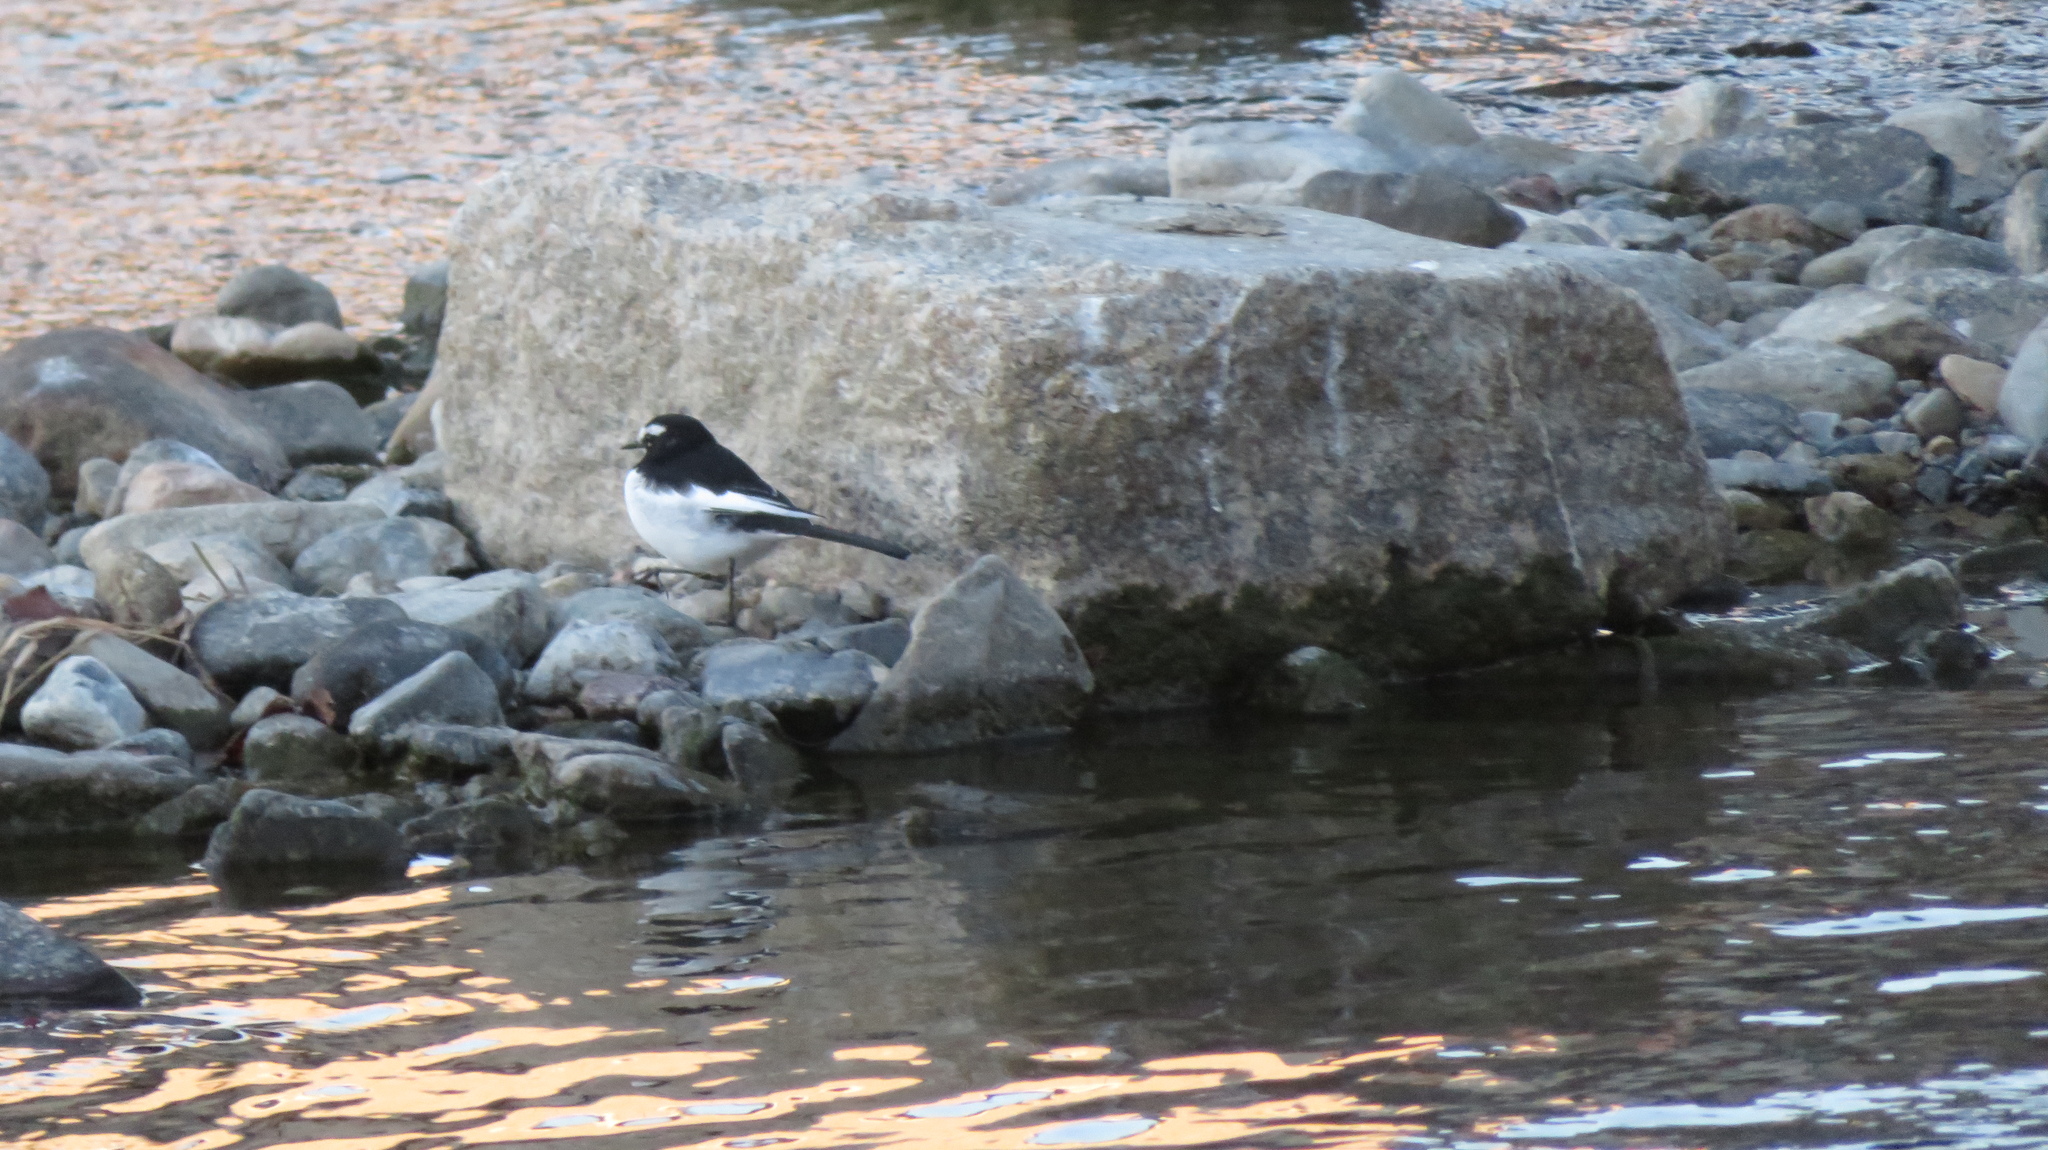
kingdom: Animalia
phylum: Chordata
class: Aves
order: Passeriformes
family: Motacillidae
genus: Motacilla
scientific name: Motacilla grandis
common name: Japanese wagtail
